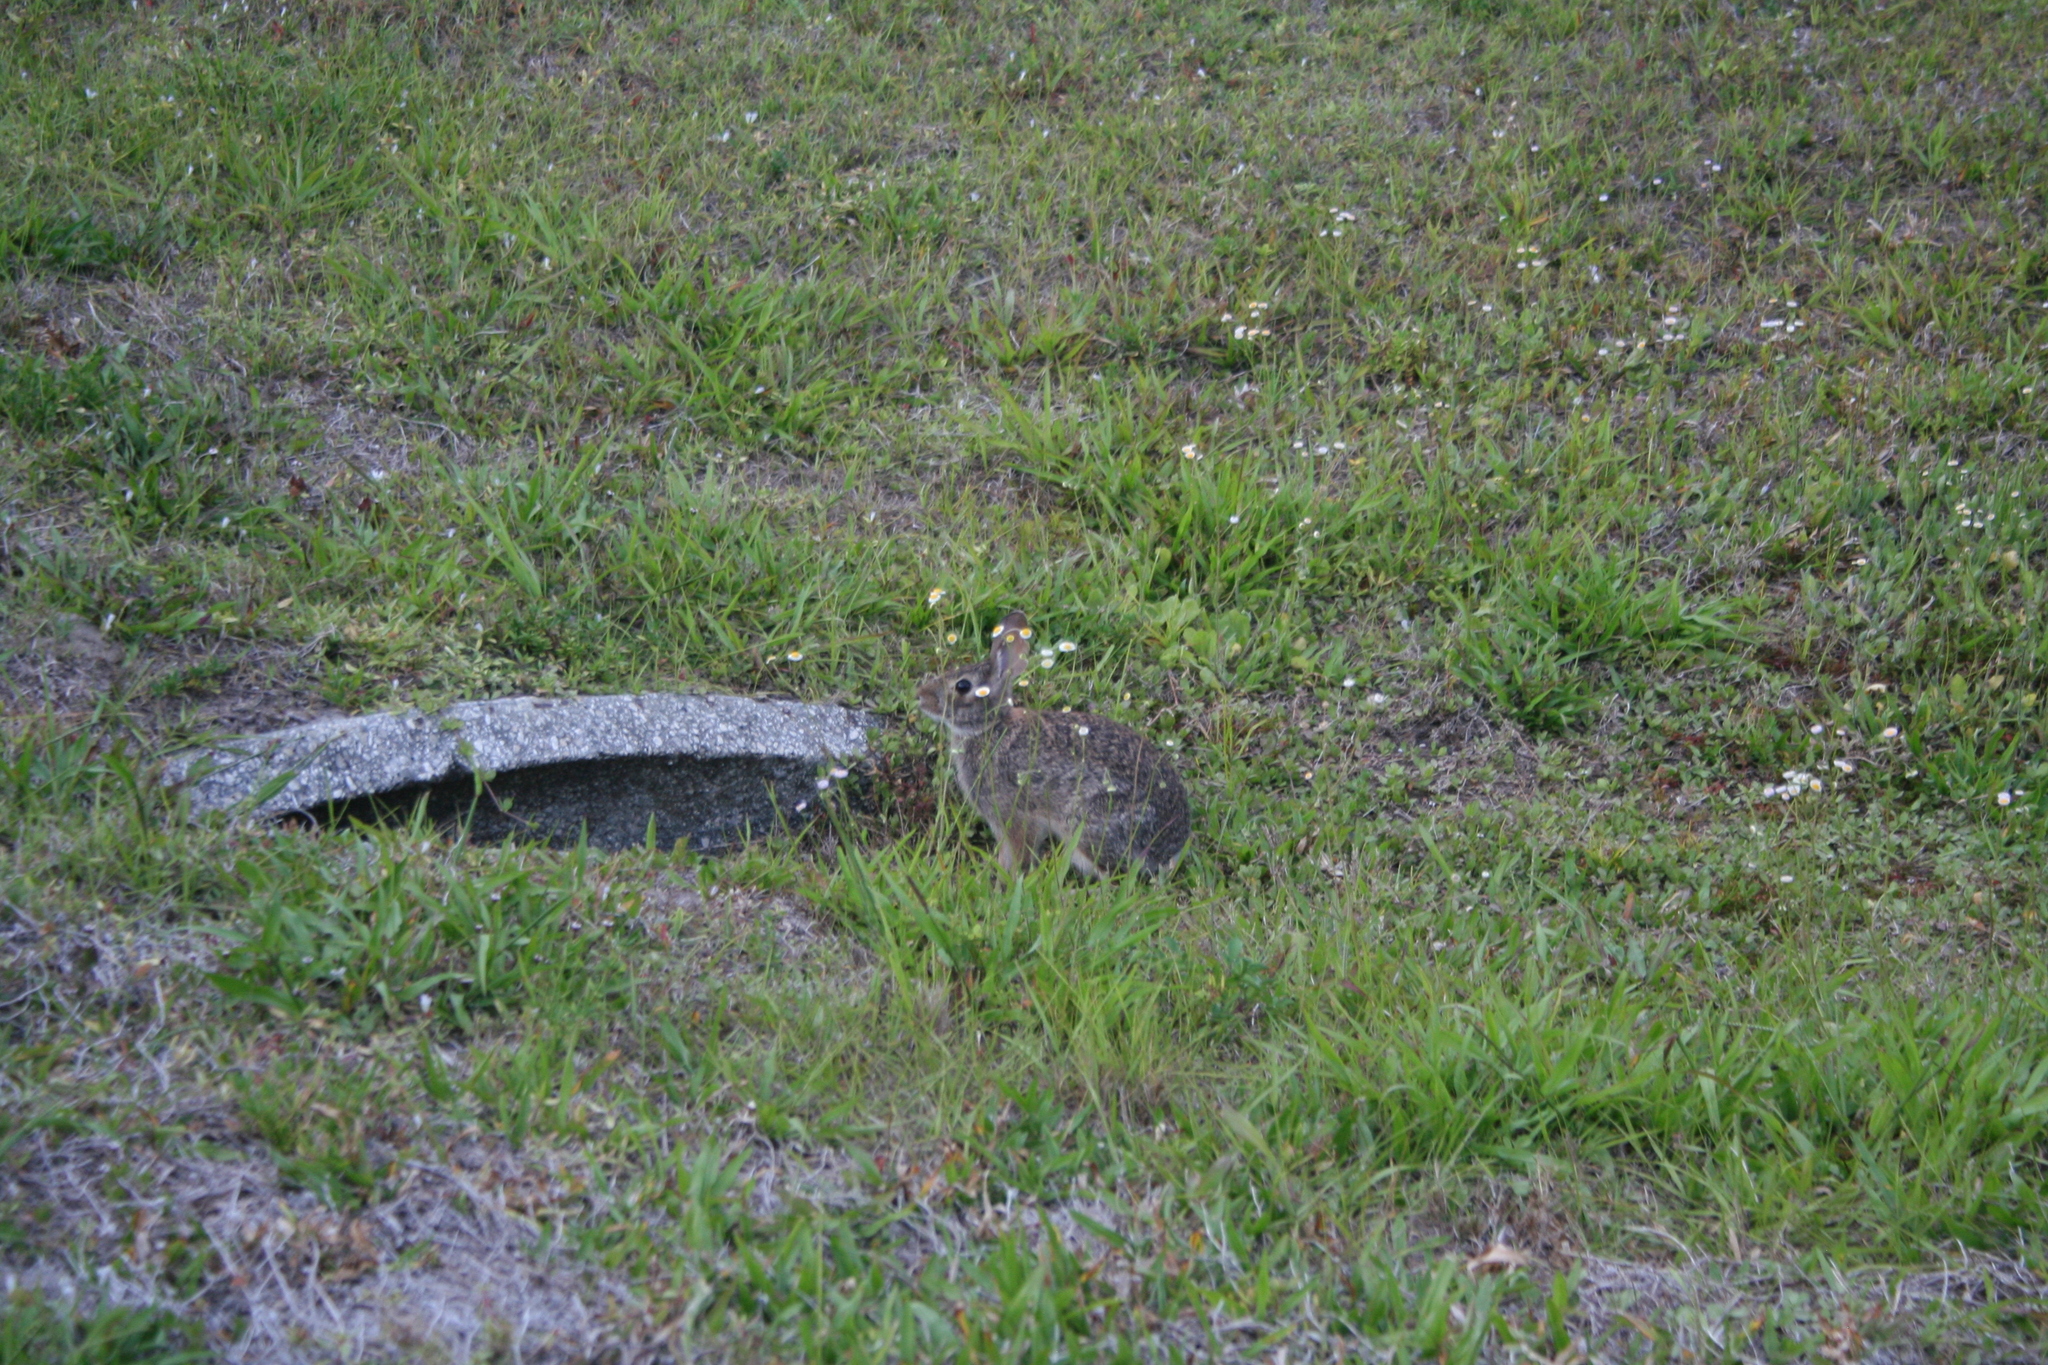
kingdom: Animalia
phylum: Chordata
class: Mammalia
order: Lagomorpha
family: Leporidae
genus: Sylvilagus
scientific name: Sylvilagus floridanus
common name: Eastern cottontail
